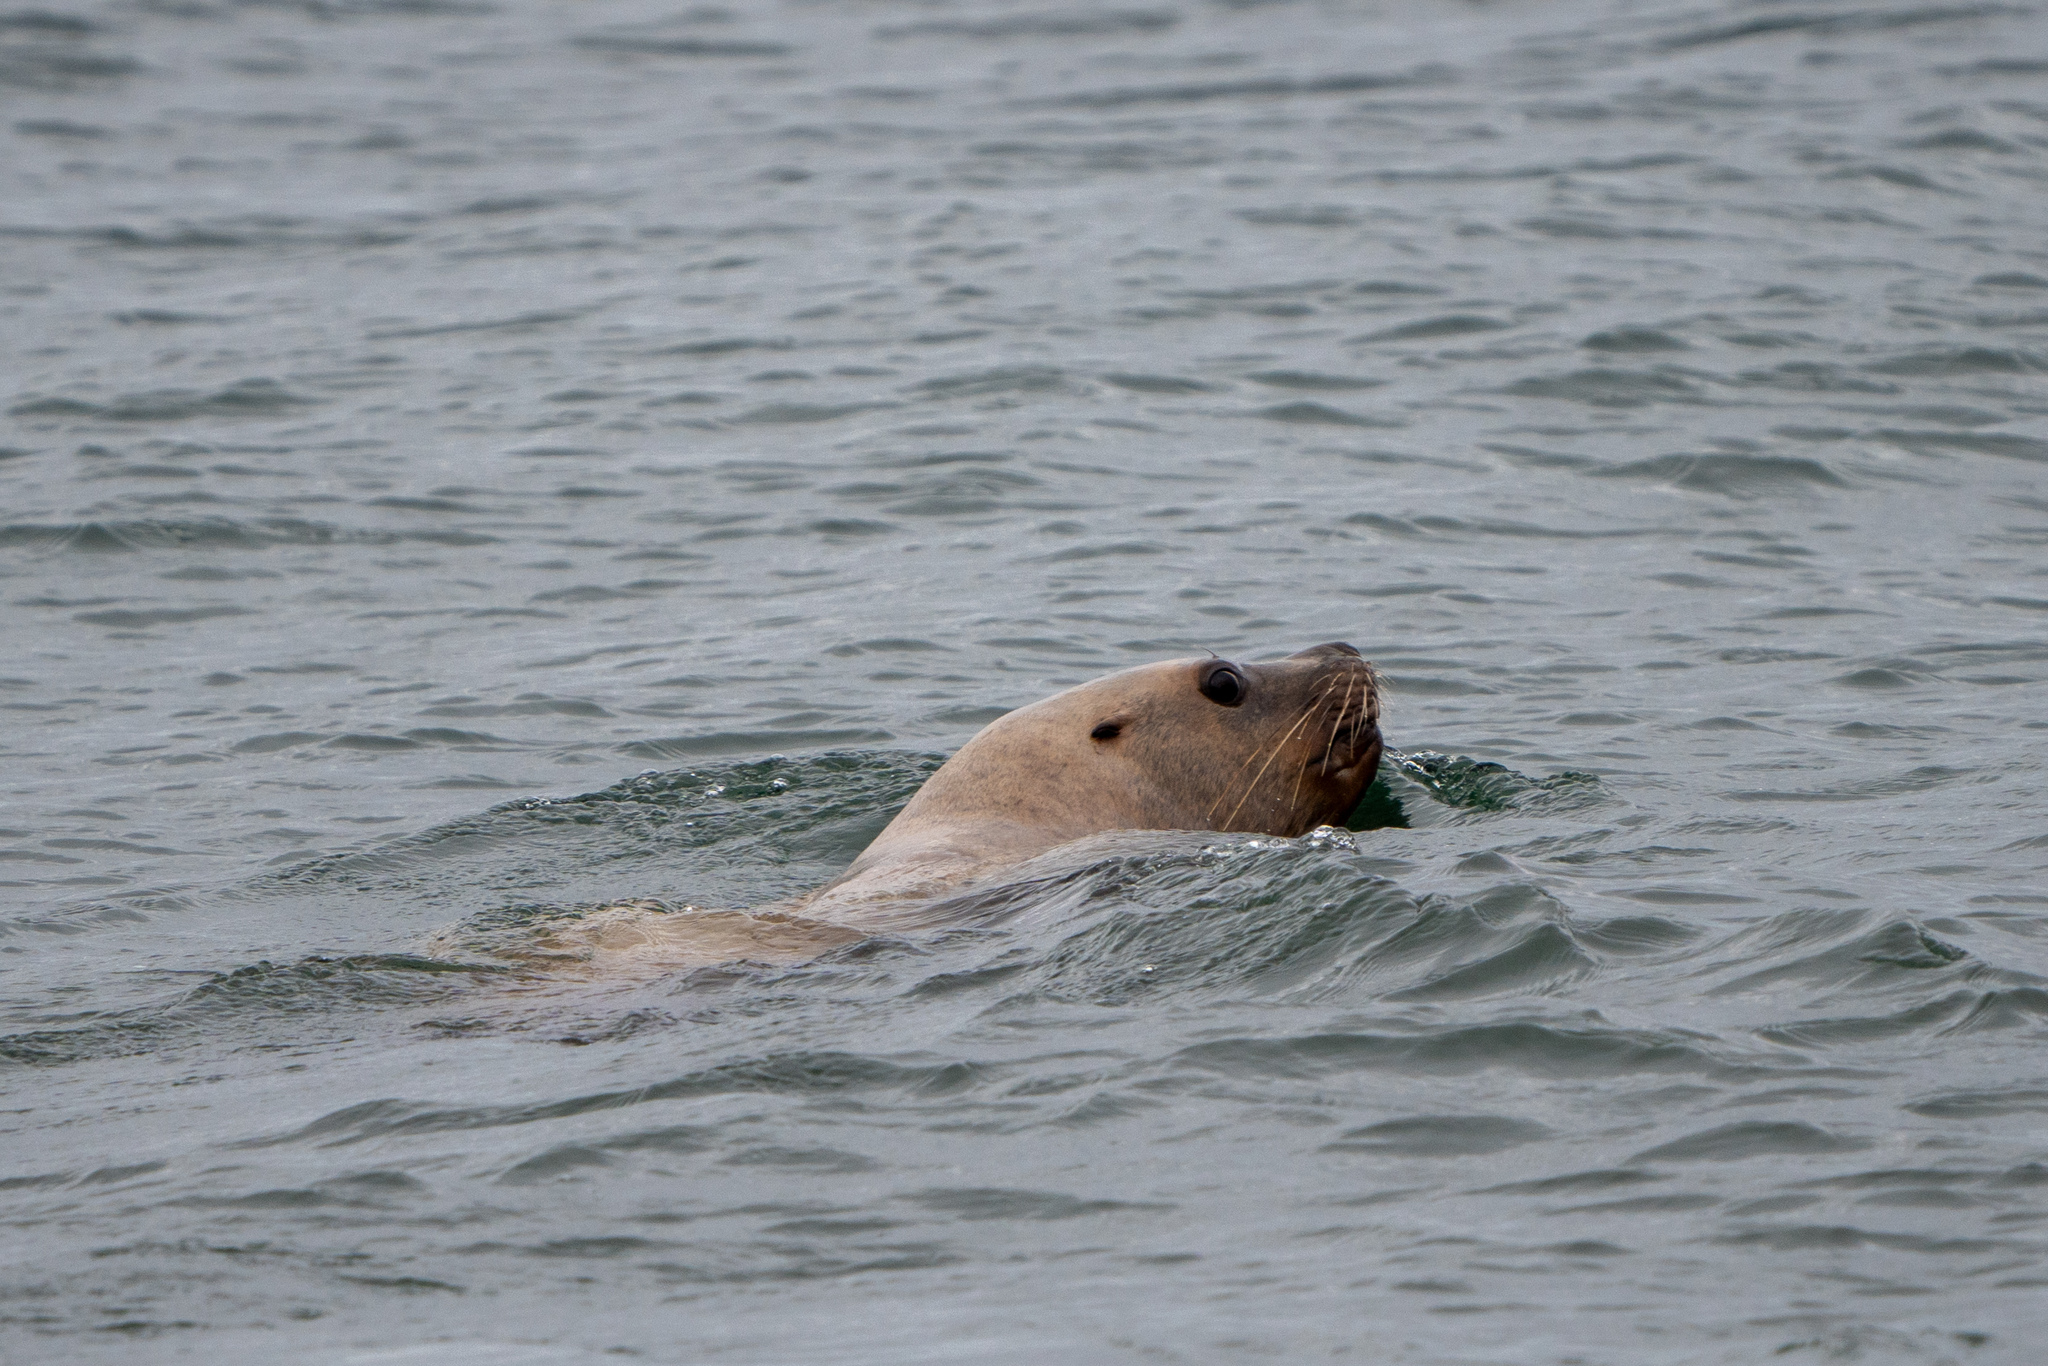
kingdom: Animalia
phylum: Chordata
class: Mammalia
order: Carnivora
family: Otariidae
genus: Eumetopias
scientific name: Eumetopias jubatus
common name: Steller sea lion
